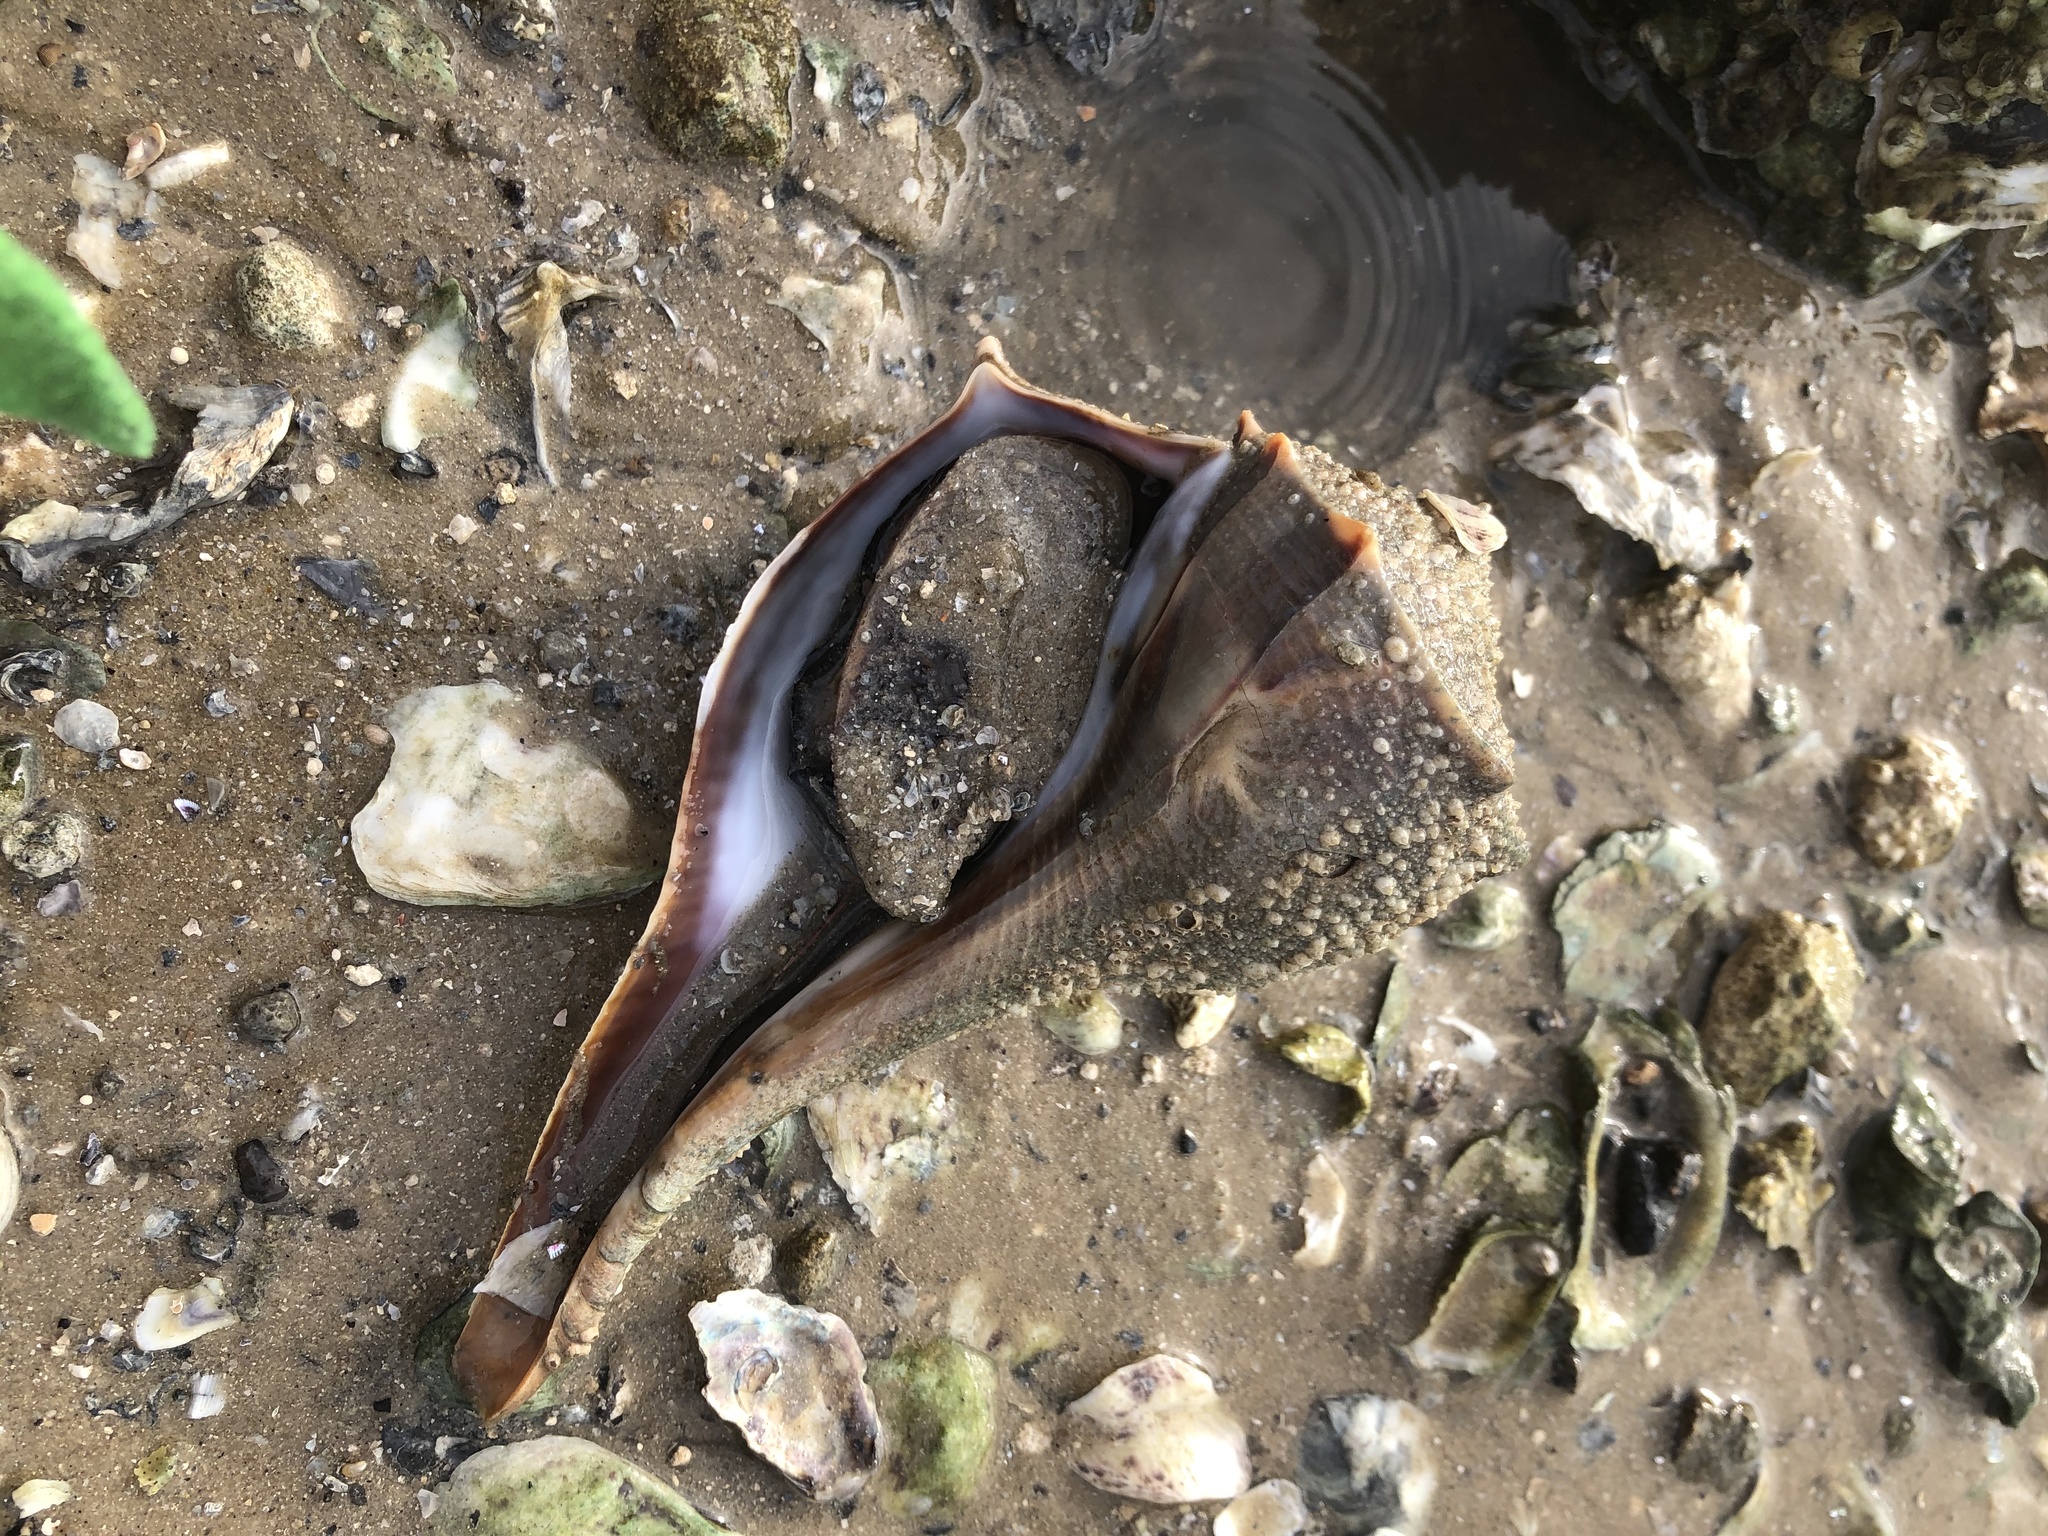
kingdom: Animalia
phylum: Mollusca
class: Gastropoda
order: Neogastropoda
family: Busyconidae
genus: Sinistrofulgur
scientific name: Sinistrofulgur sinistrum
